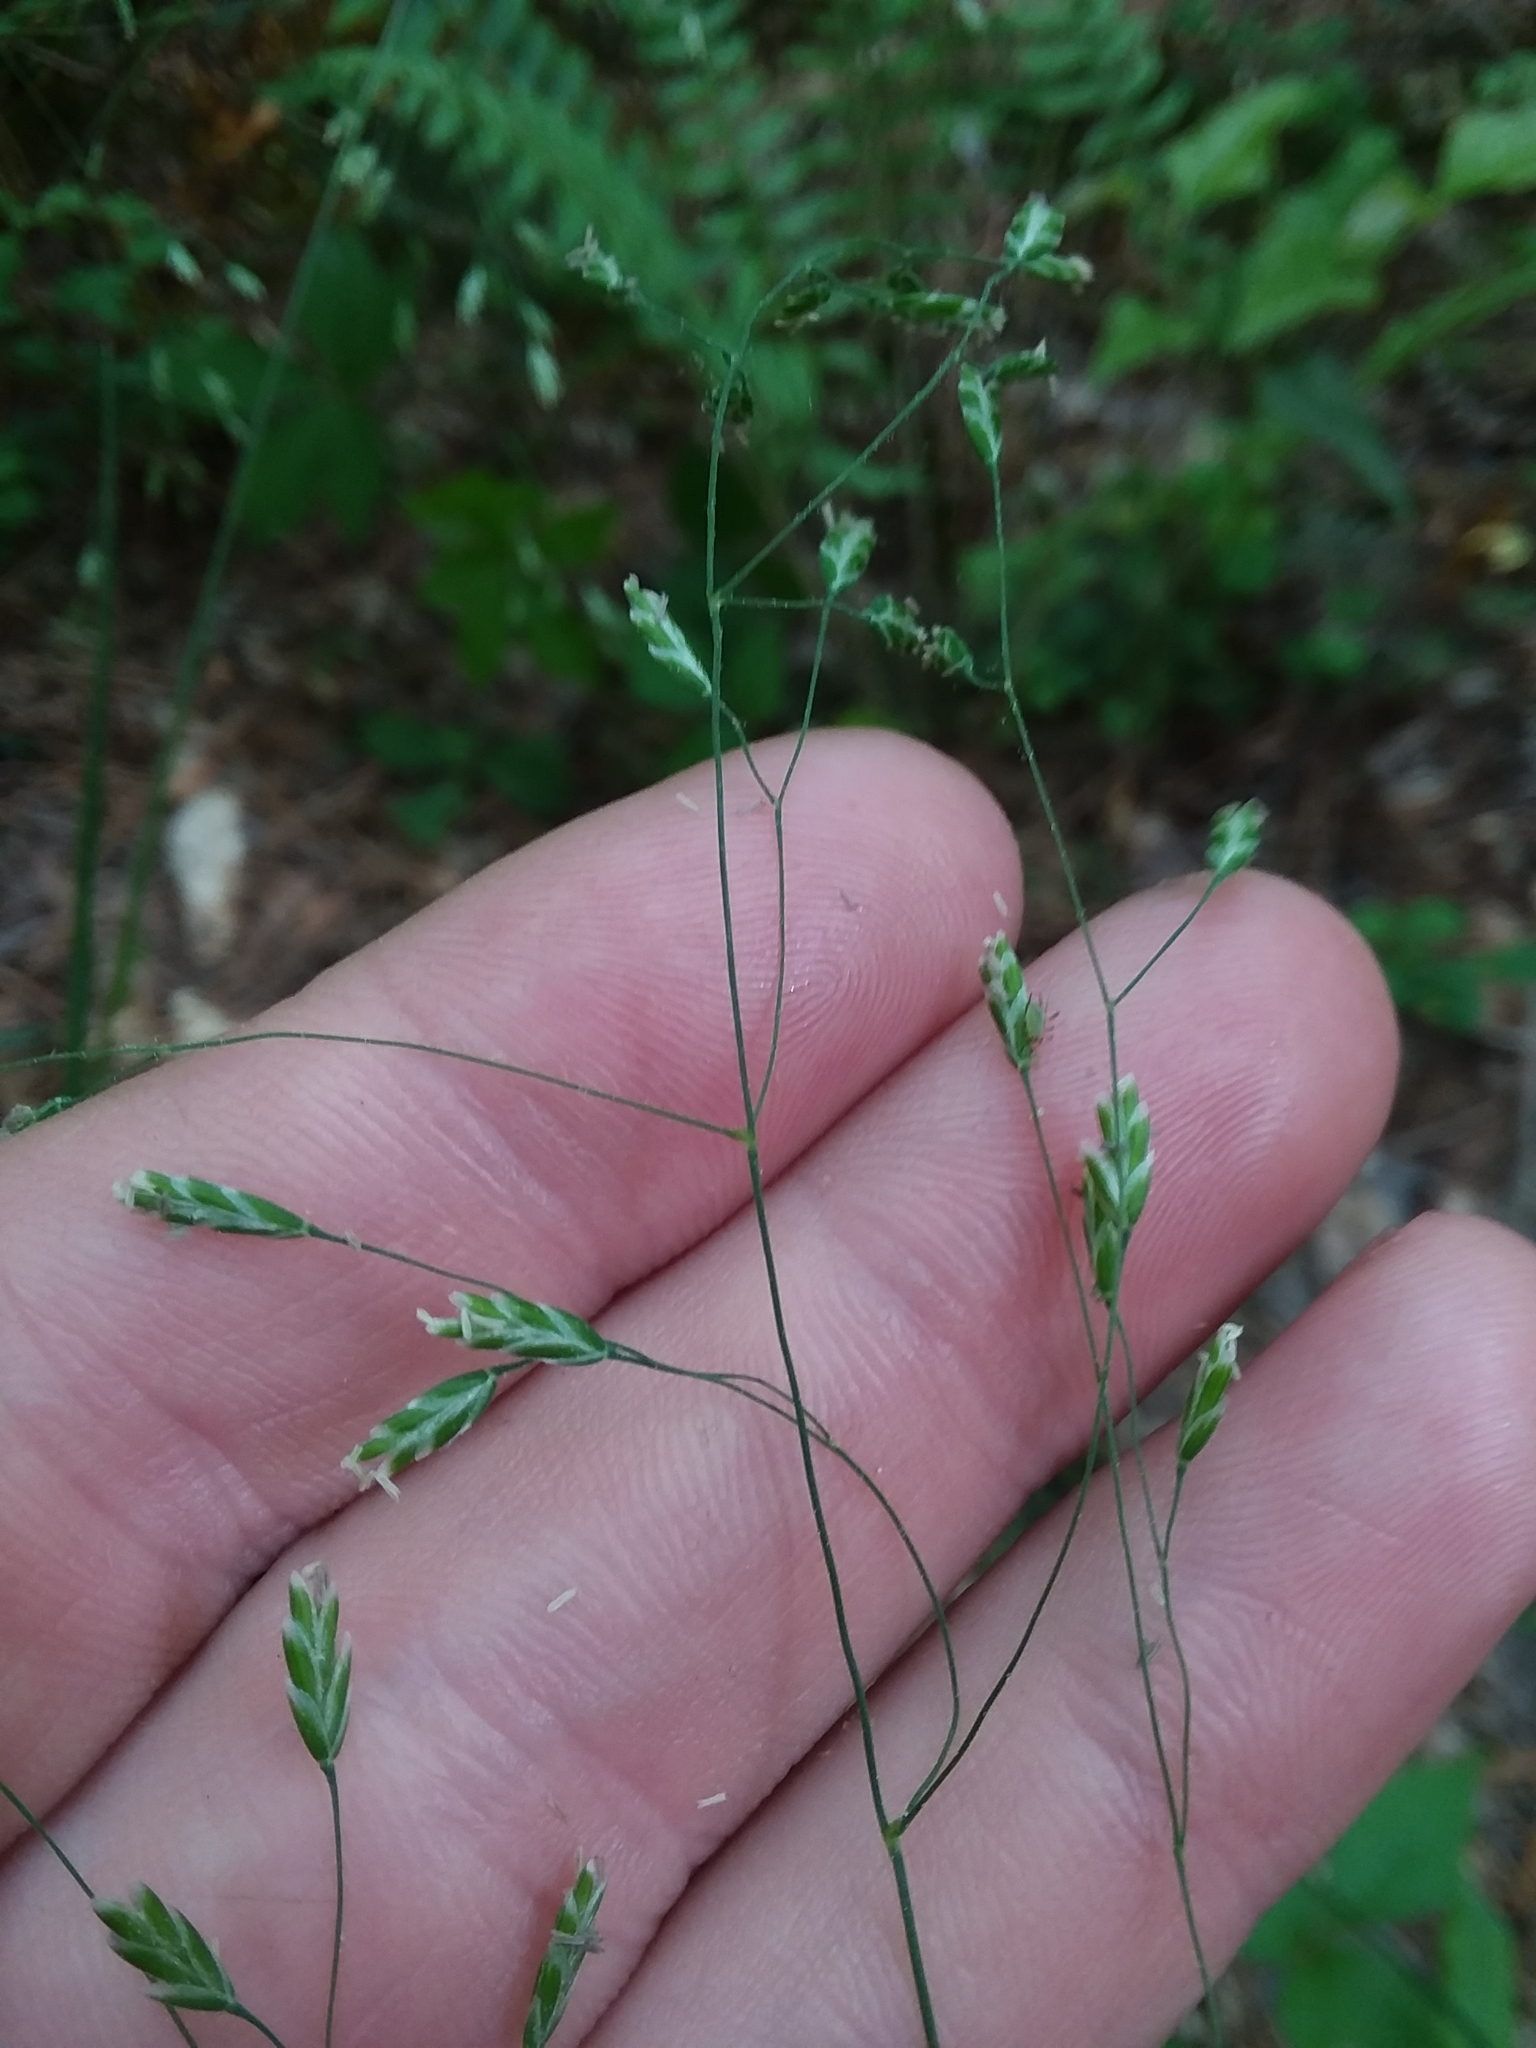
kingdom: Plantae
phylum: Tracheophyta
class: Liliopsida
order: Poales
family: Poaceae
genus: Poa
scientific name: Poa autumnalis
